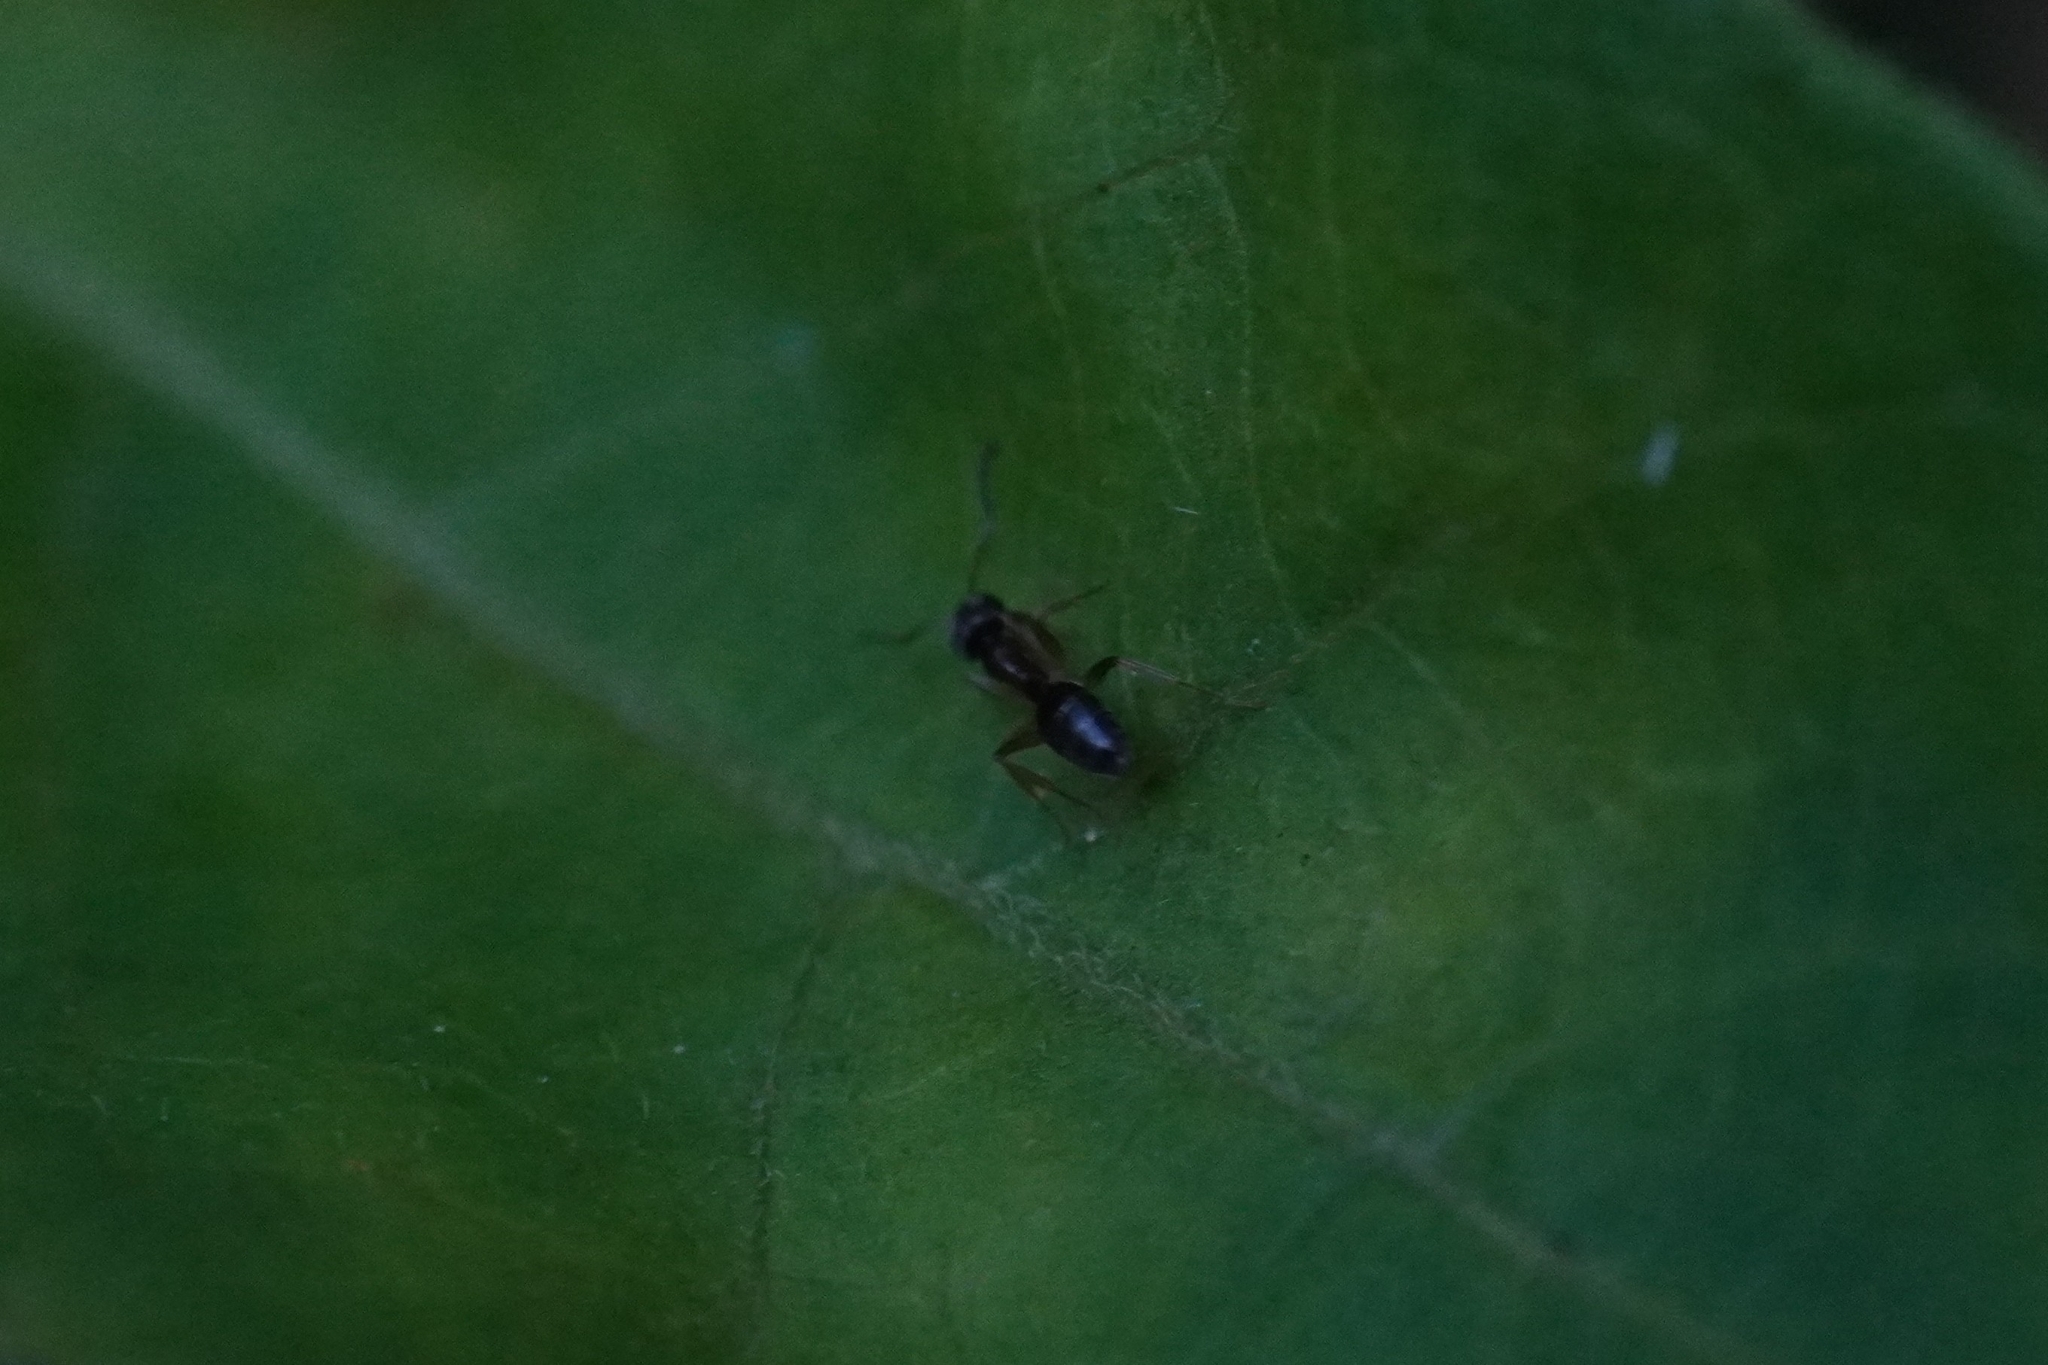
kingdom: Animalia
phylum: Arthropoda
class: Insecta
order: Hymenoptera
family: Formicidae
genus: Tapinoma
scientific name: Tapinoma sessile
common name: Odorous house ant
